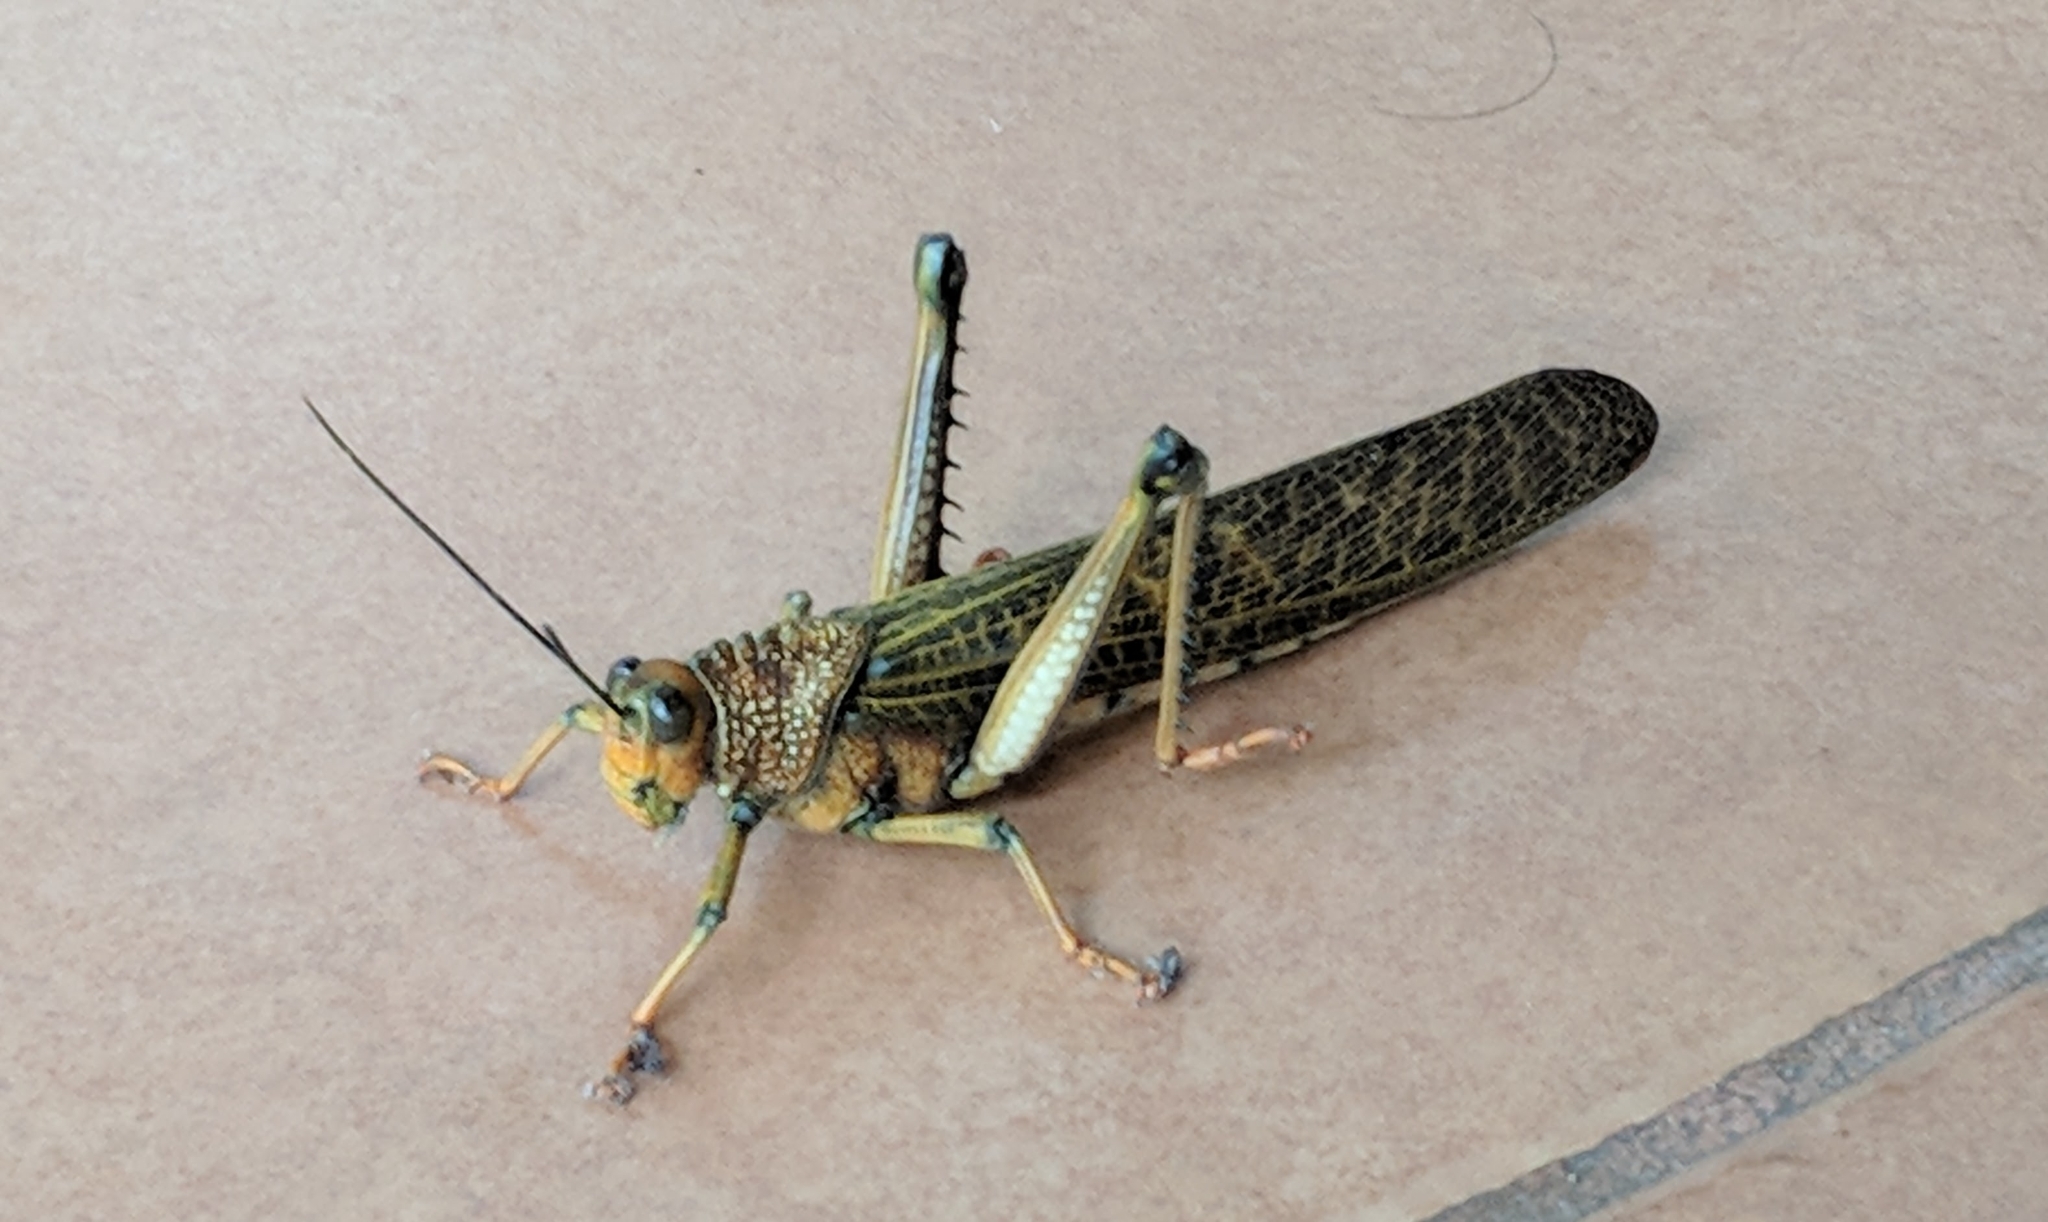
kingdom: Animalia
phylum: Arthropoda
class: Insecta
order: Orthoptera
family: Romaleidae
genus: Tropidacris
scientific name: Tropidacris cristata
